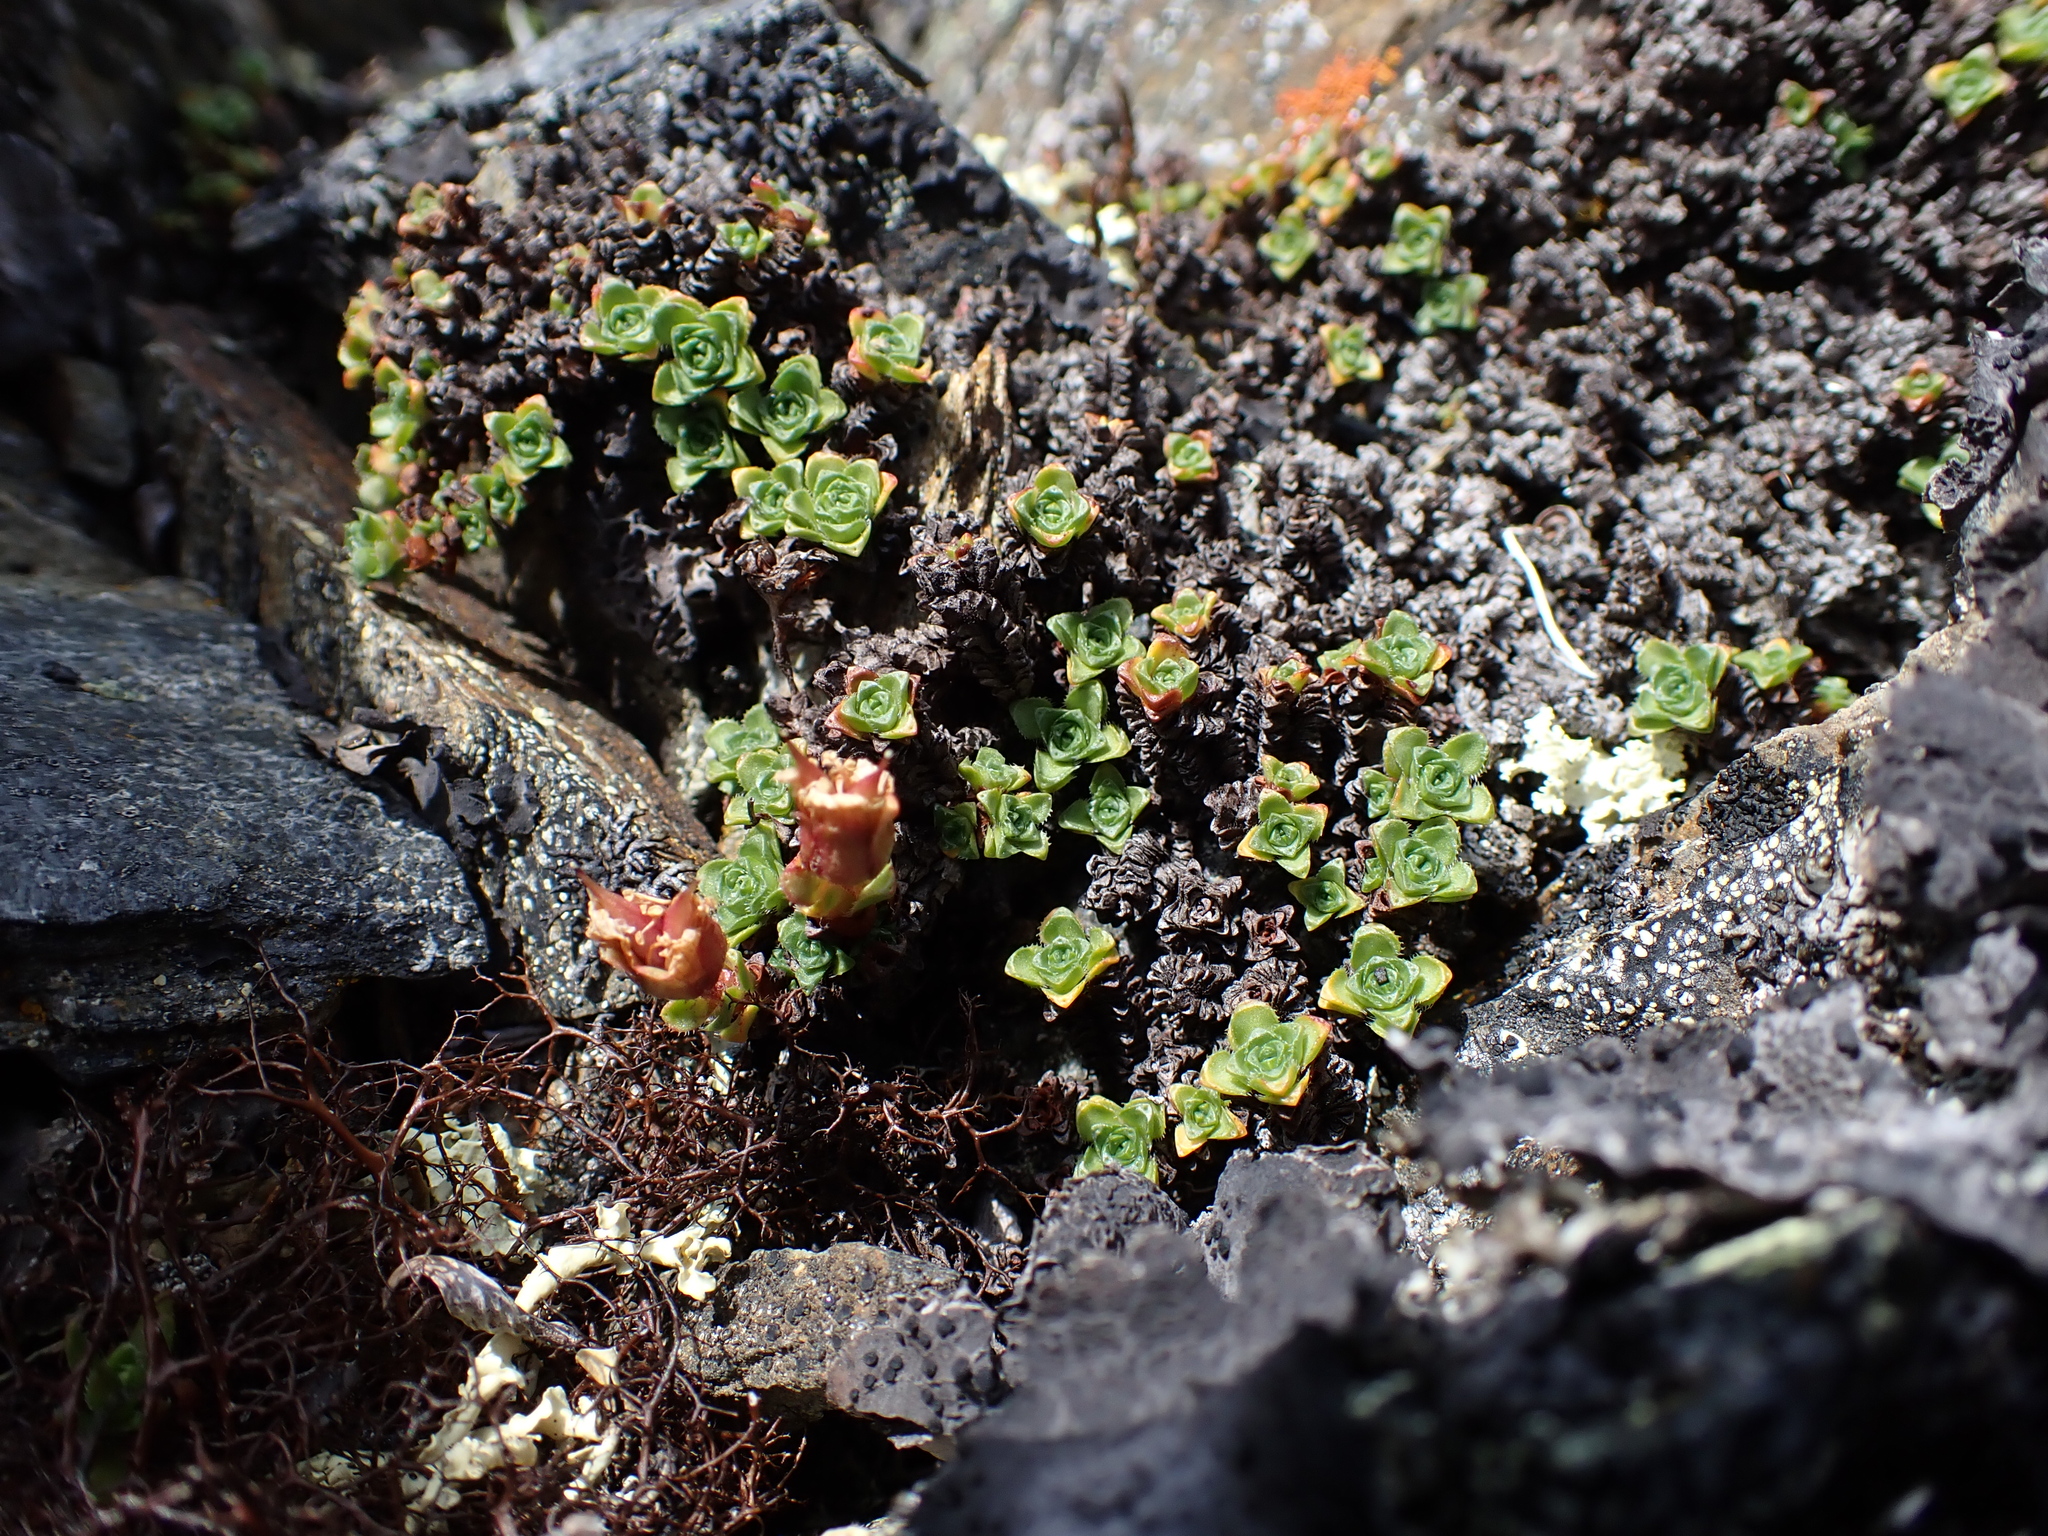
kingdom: Plantae
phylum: Tracheophyta
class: Magnoliopsida
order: Saxifragales
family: Saxifragaceae
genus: Saxifraga
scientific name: Saxifraga oppositifolia
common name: Purple saxifrage
